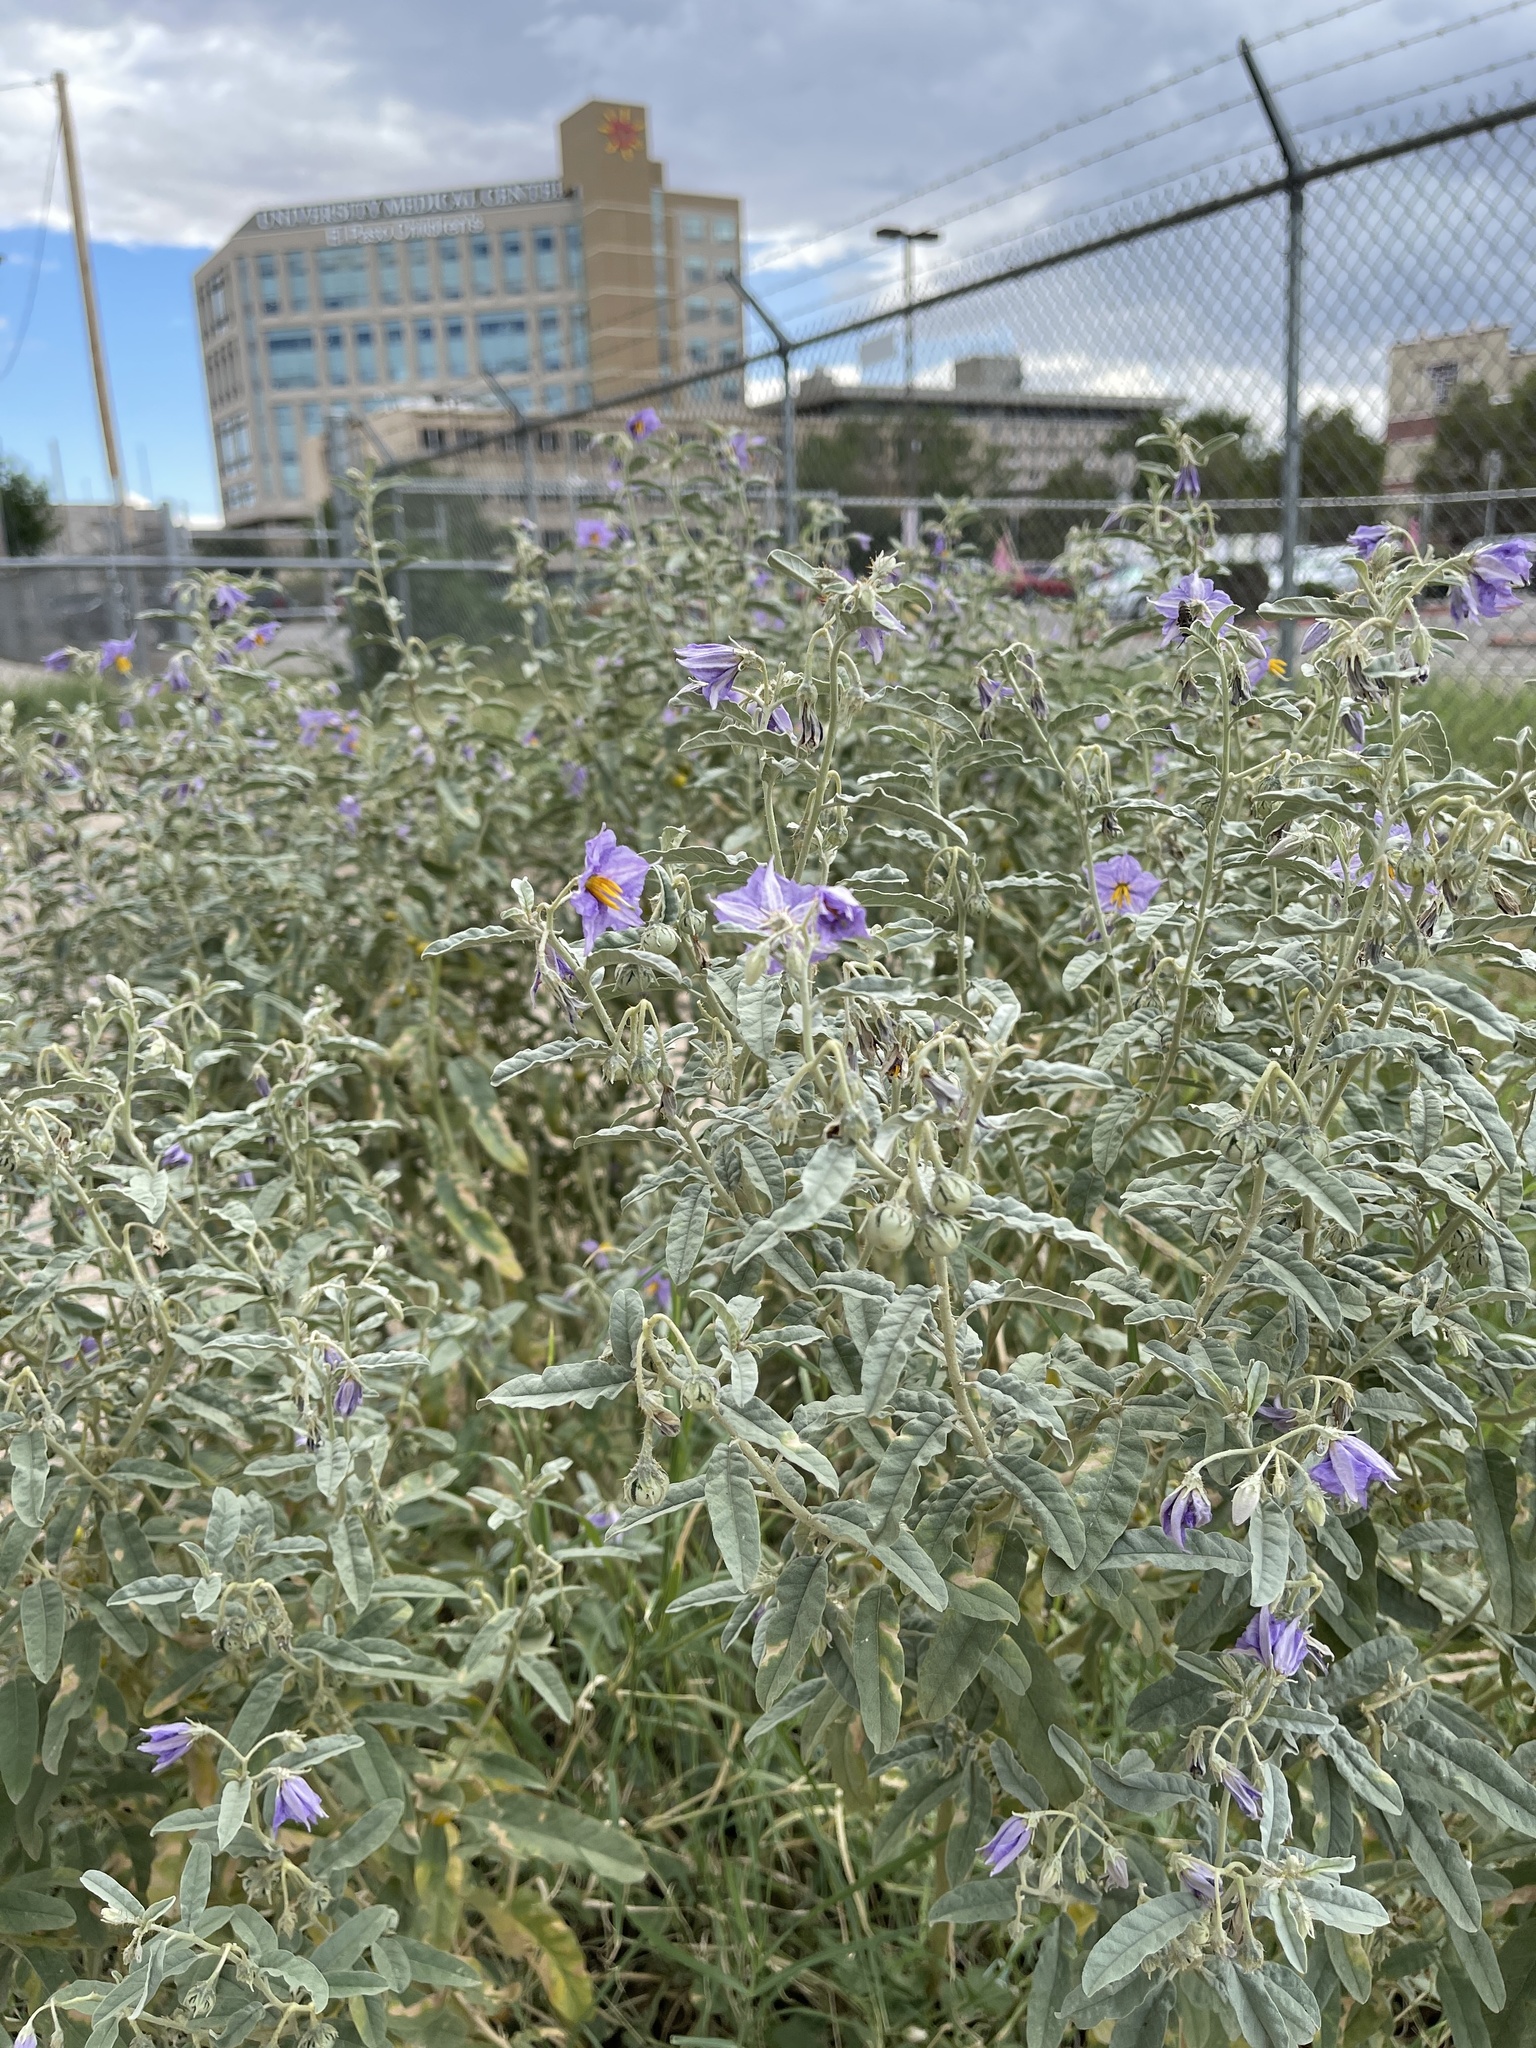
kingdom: Plantae
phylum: Tracheophyta
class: Magnoliopsida
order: Solanales
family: Solanaceae
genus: Solanum
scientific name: Solanum elaeagnifolium
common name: Silverleaf nightshade
